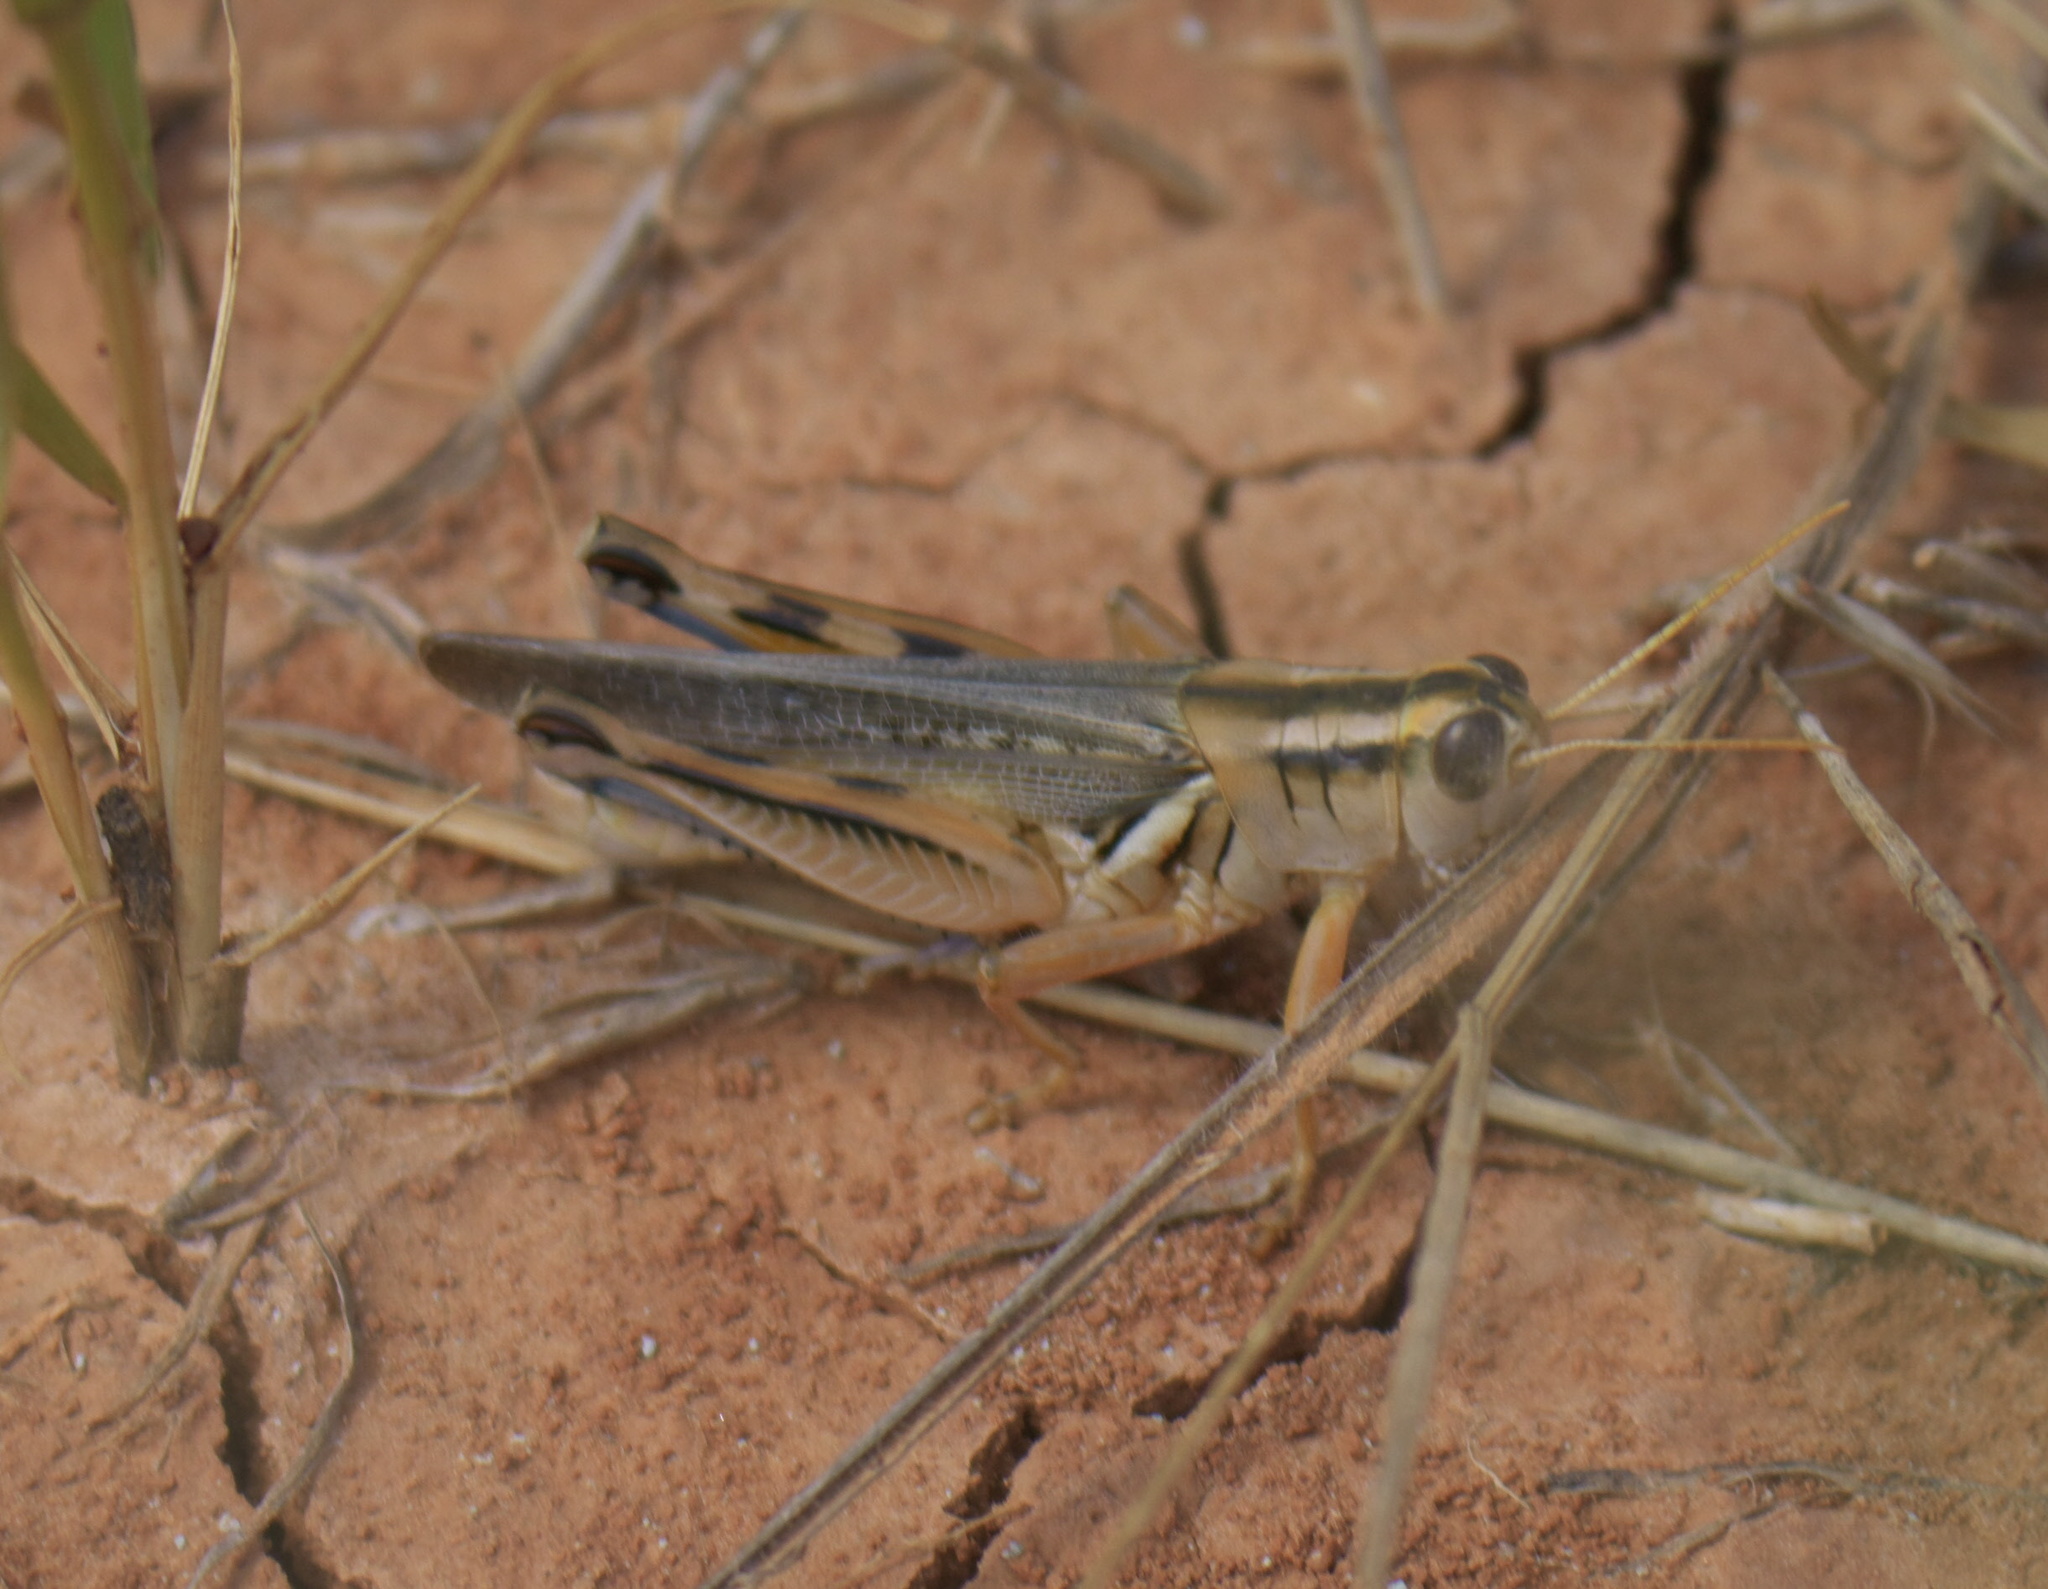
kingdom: Animalia
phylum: Arthropoda
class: Insecta
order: Orthoptera
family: Acrididae
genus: Melanoplus
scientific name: Melanoplus packardii
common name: Packard's grasshopper
